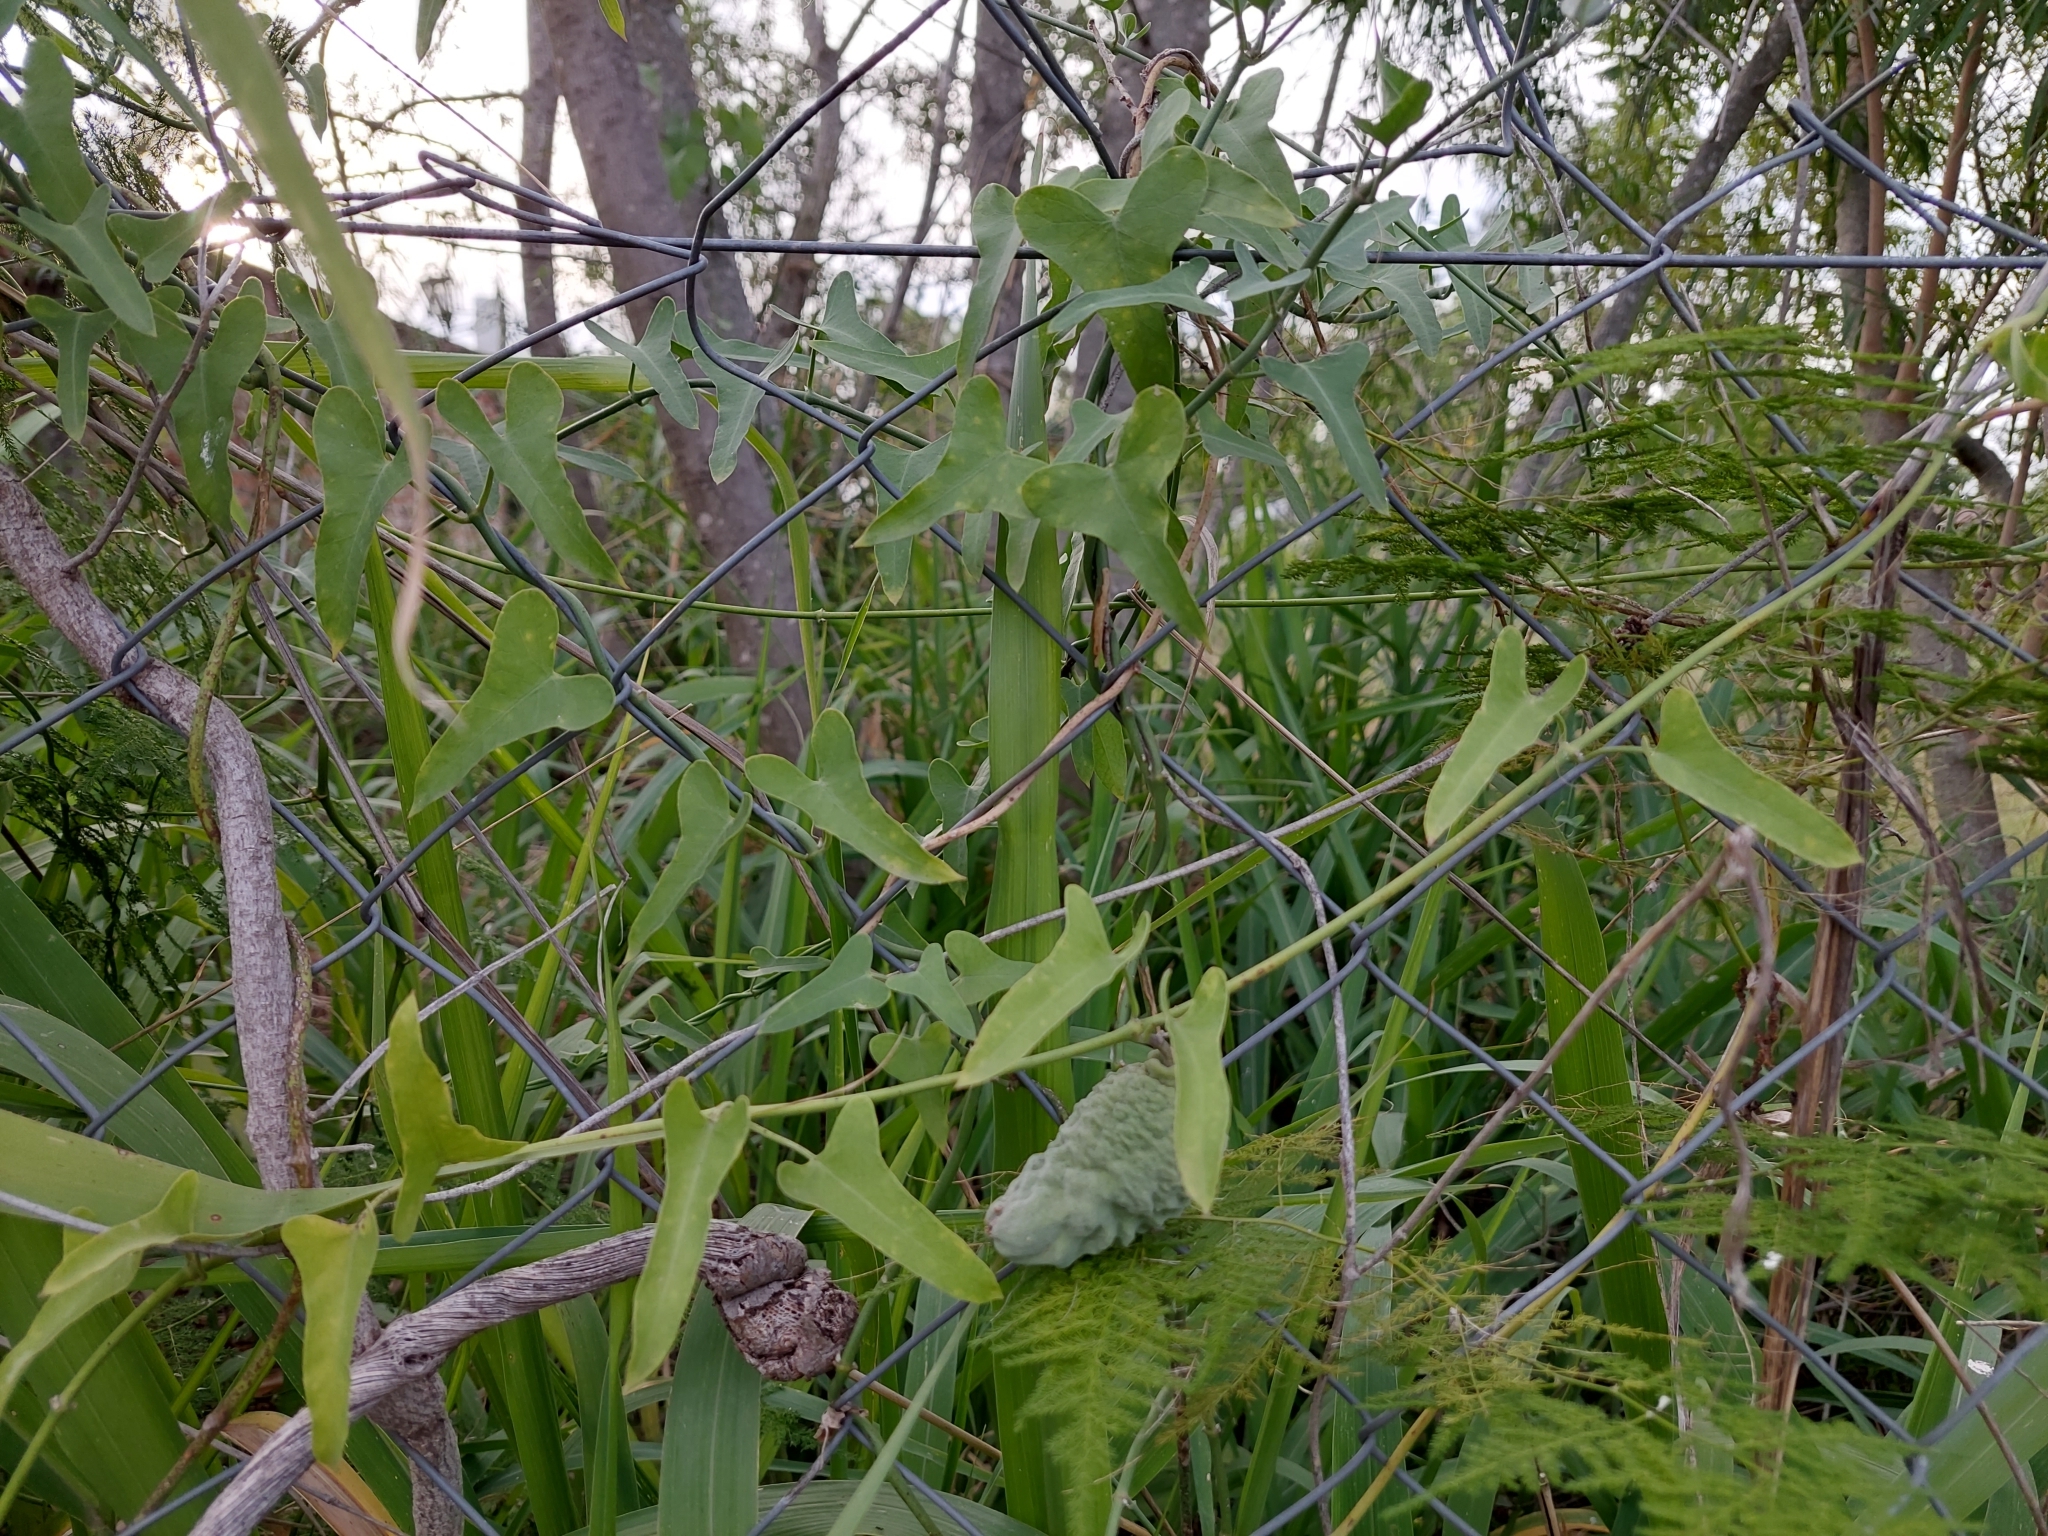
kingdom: Plantae
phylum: Tracheophyta
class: Magnoliopsida
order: Gentianales
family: Apocynaceae
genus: Araujia
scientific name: Araujia brachystephana
